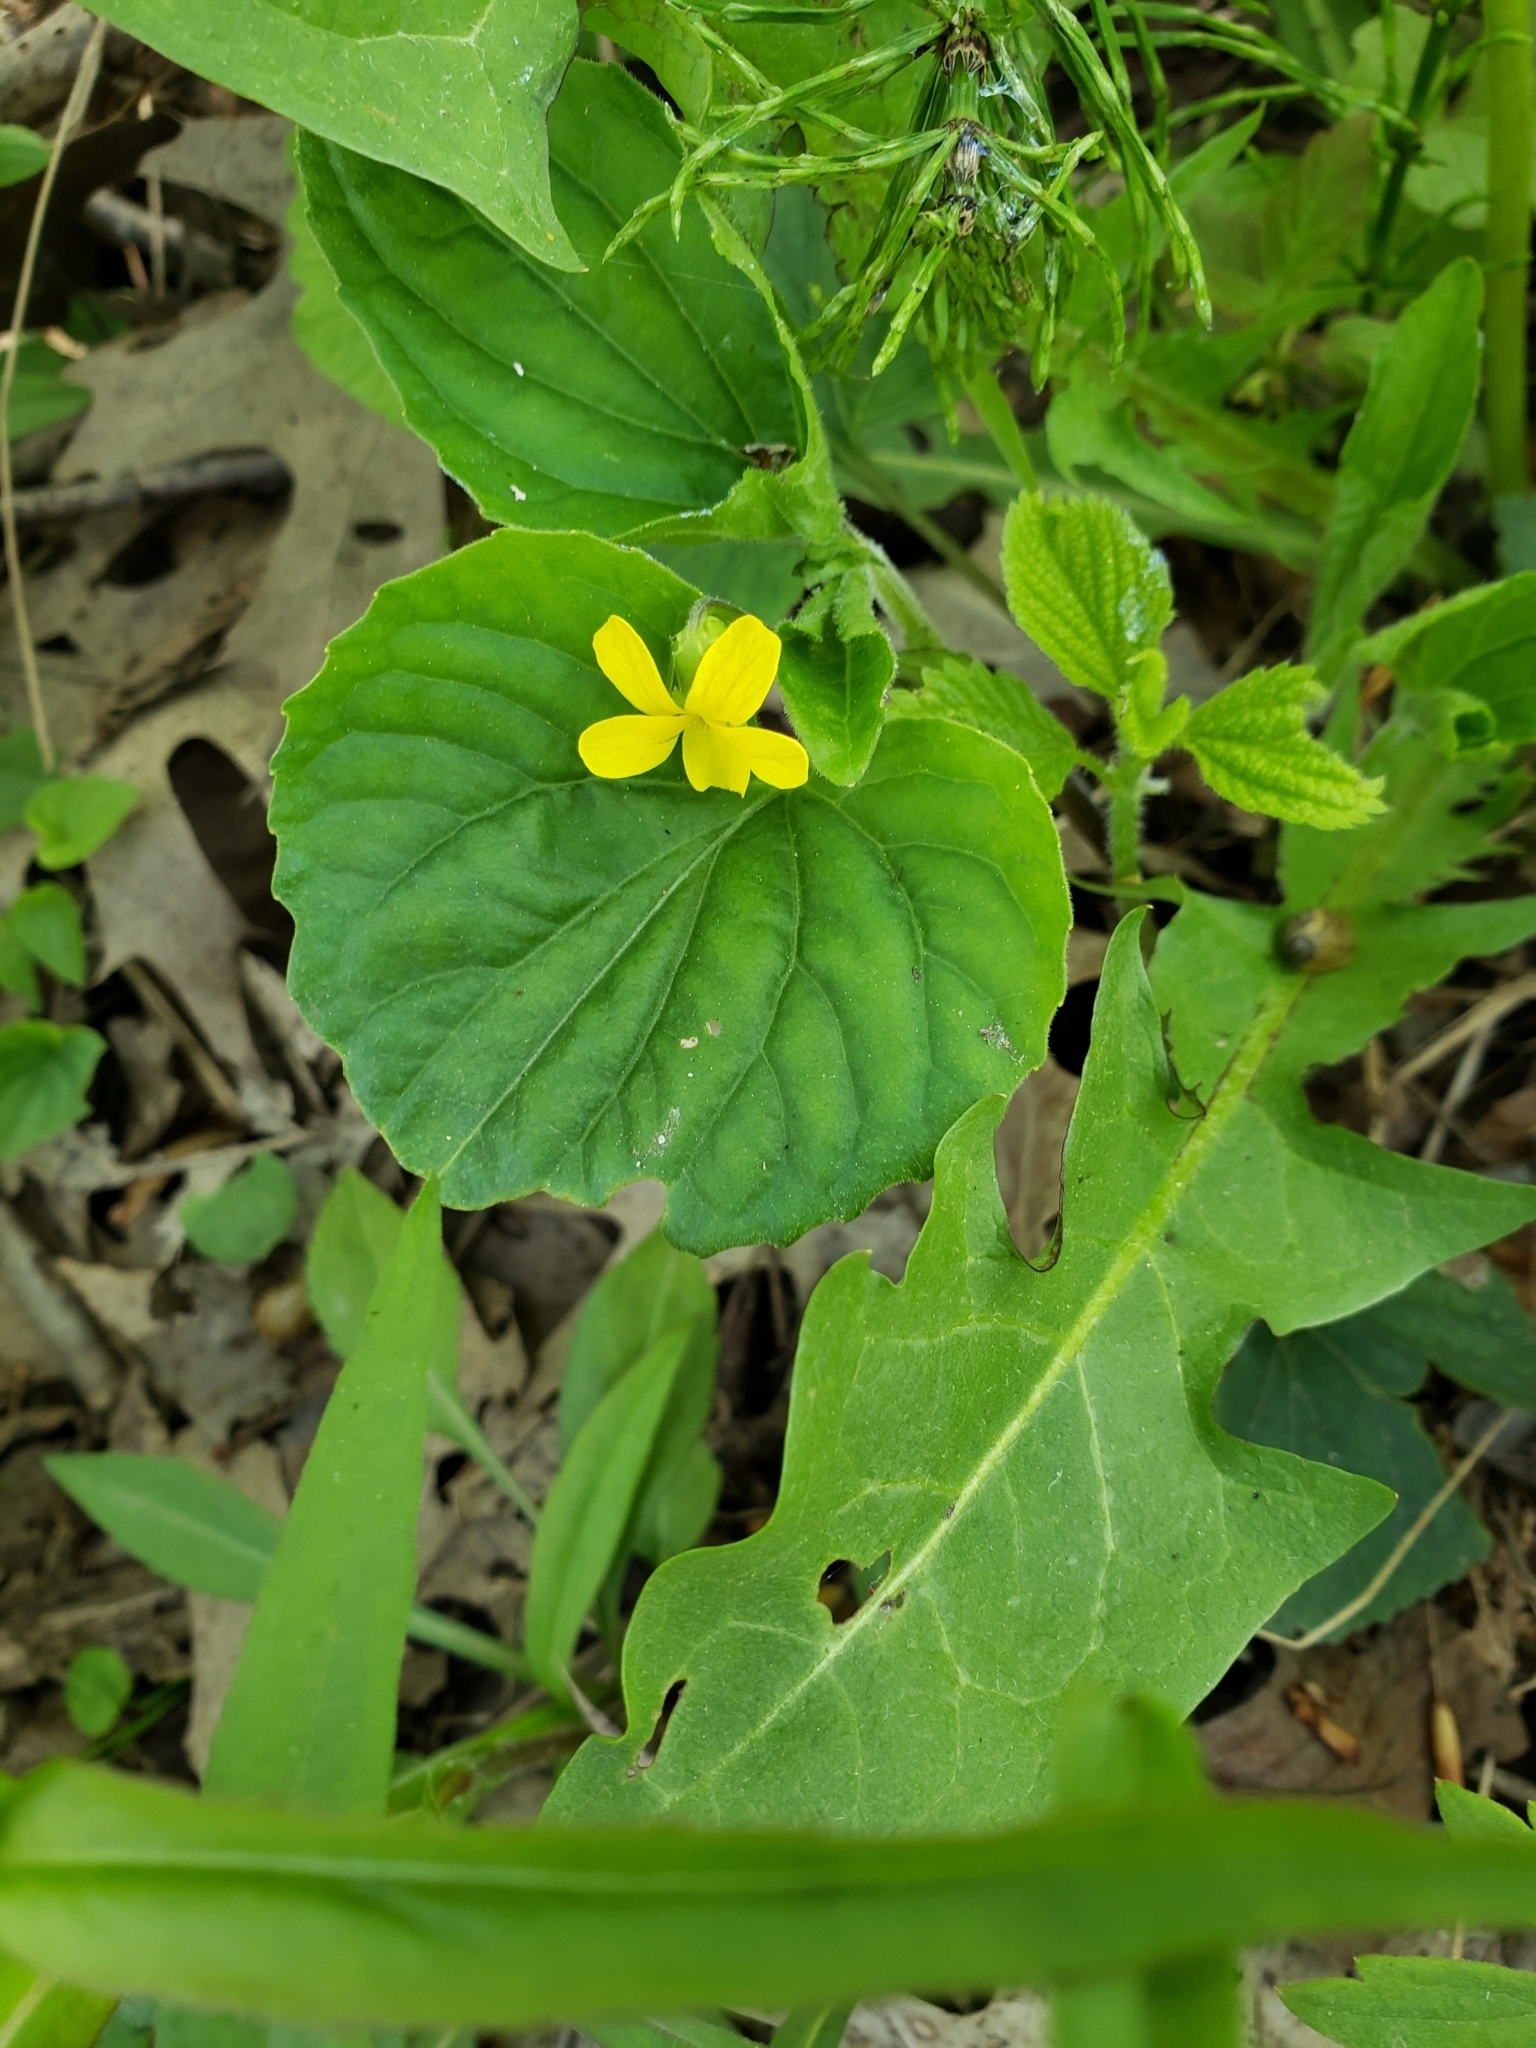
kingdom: Plantae
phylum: Tracheophyta
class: Magnoliopsida
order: Malpighiales
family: Violaceae
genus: Viola
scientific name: Viola eriocarpa
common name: Smooth yellow violet
